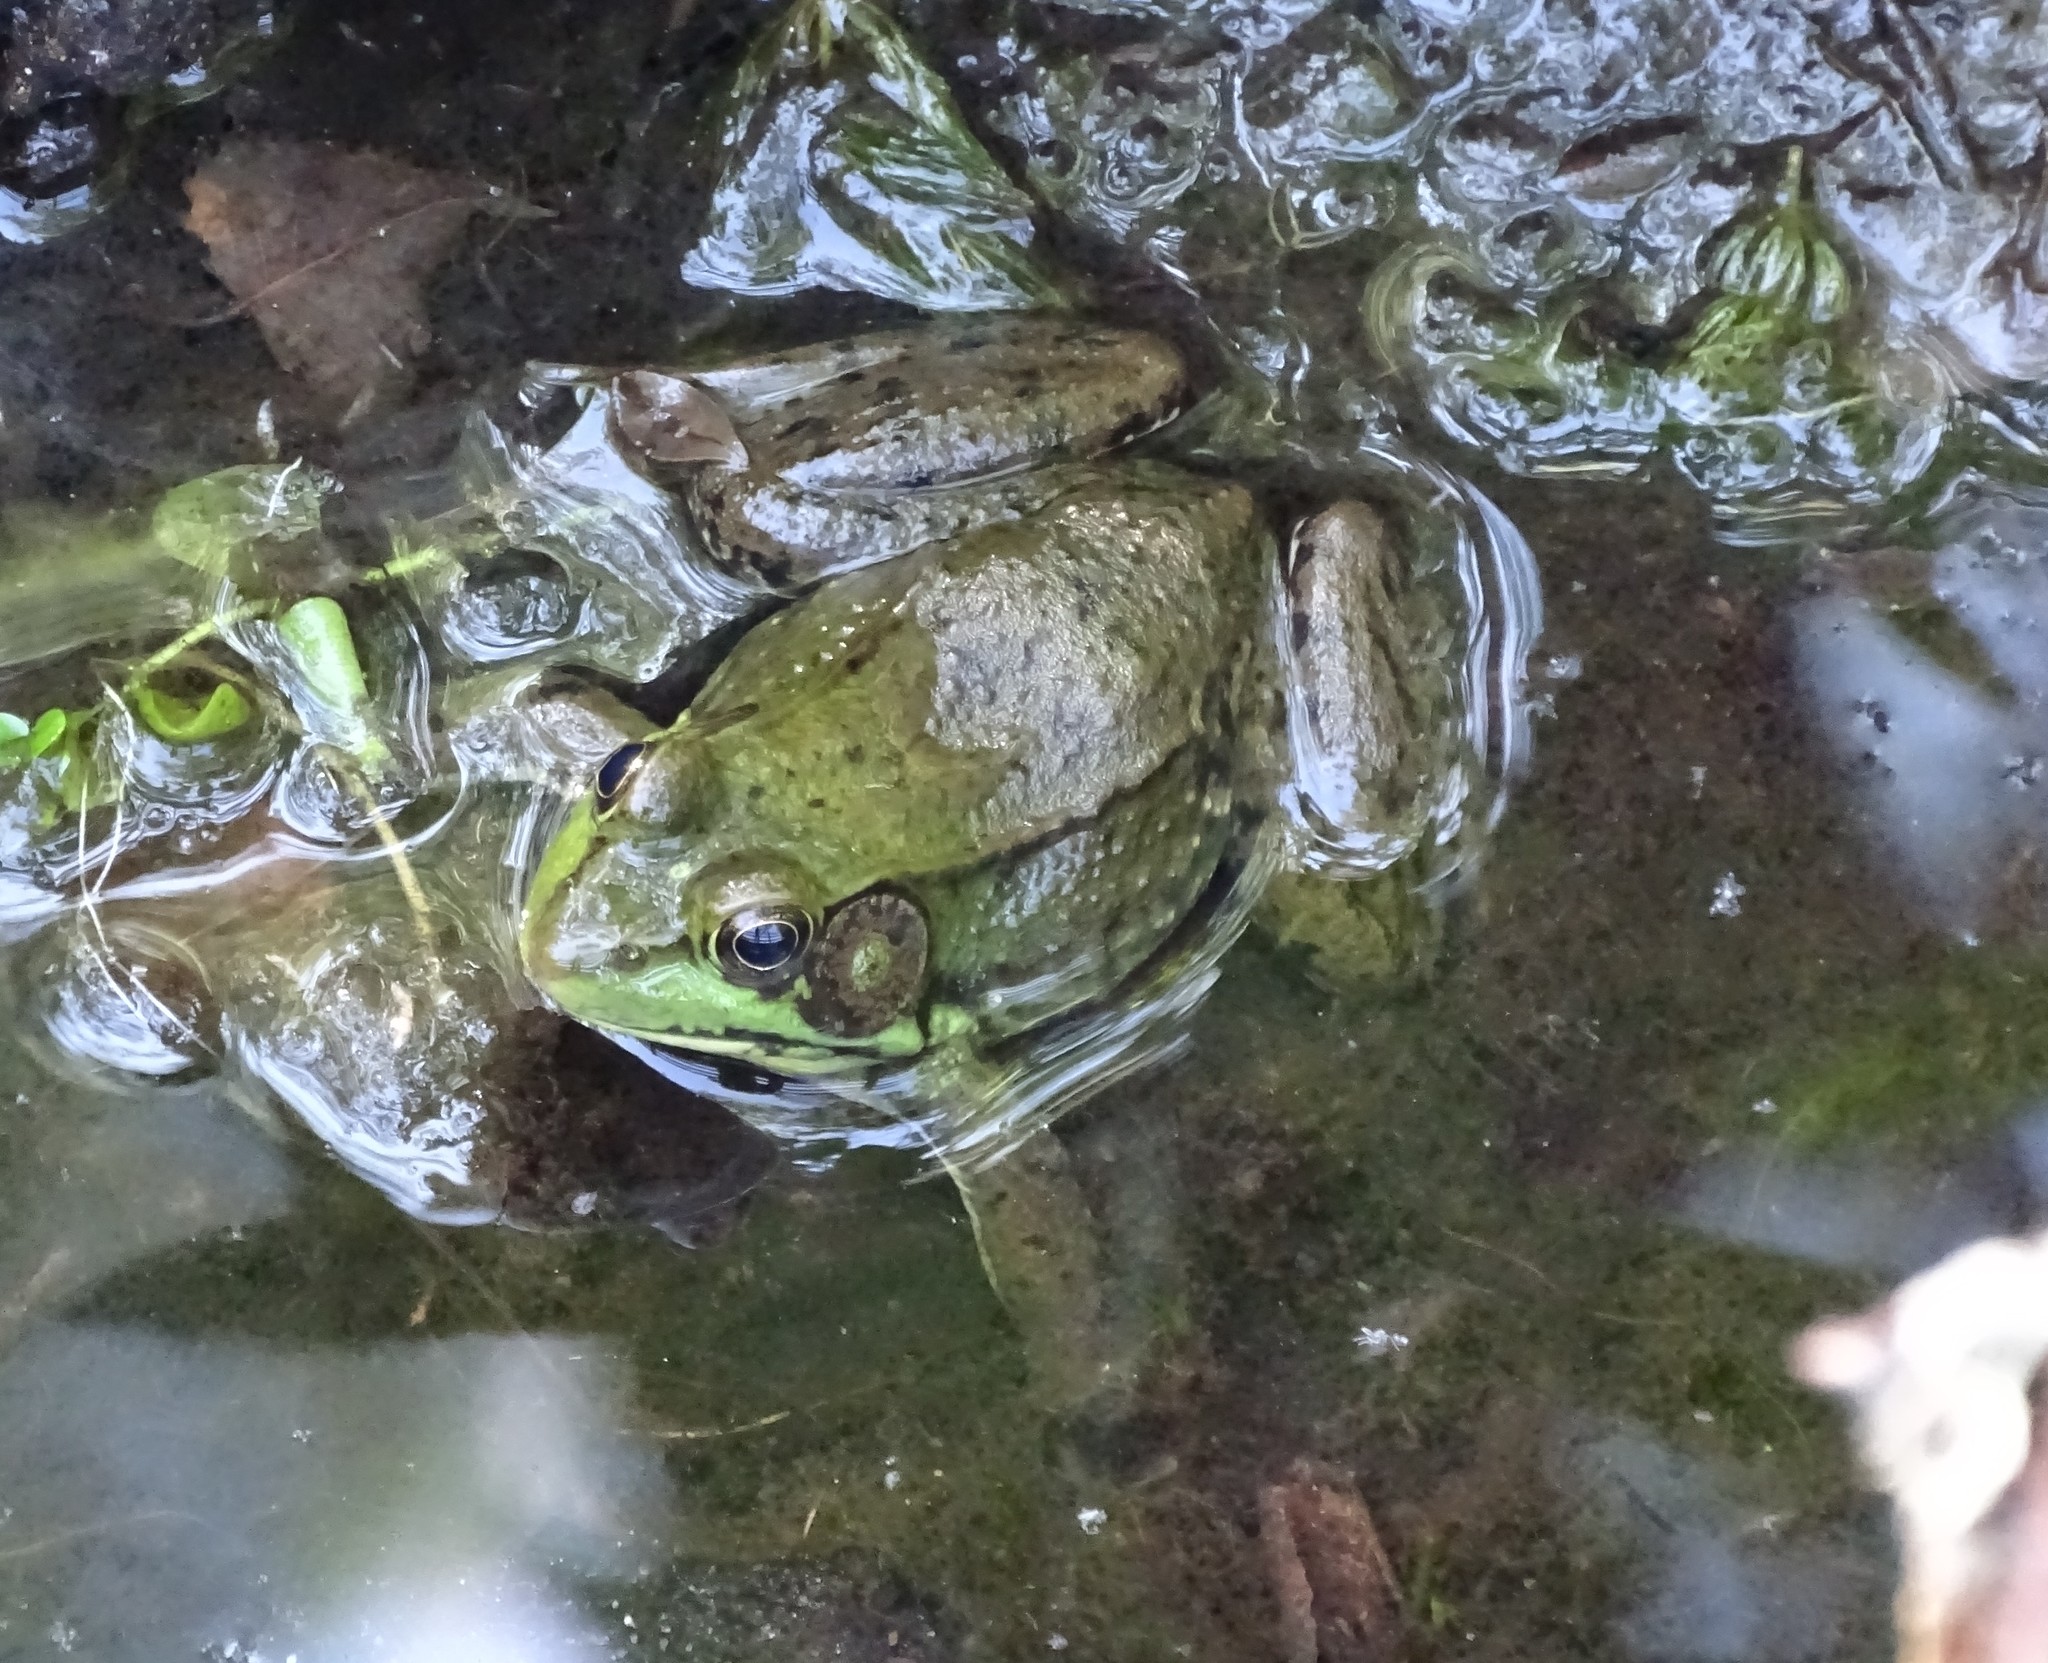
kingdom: Animalia
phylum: Chordata
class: Amphibia
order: Anura
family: Ranidae
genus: Lithobates
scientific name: Lithobates clamitans
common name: Green frog
